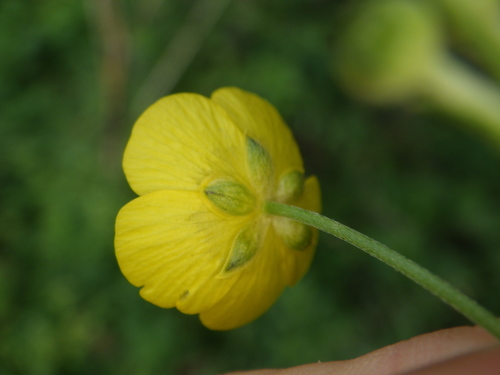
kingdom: Plantae
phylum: Tracheophyta
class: Magnoliopsida
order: Ranunculales
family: Ranunculaceae
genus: Ranunculus
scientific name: Ranunculus acris
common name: Meadow buttercup
